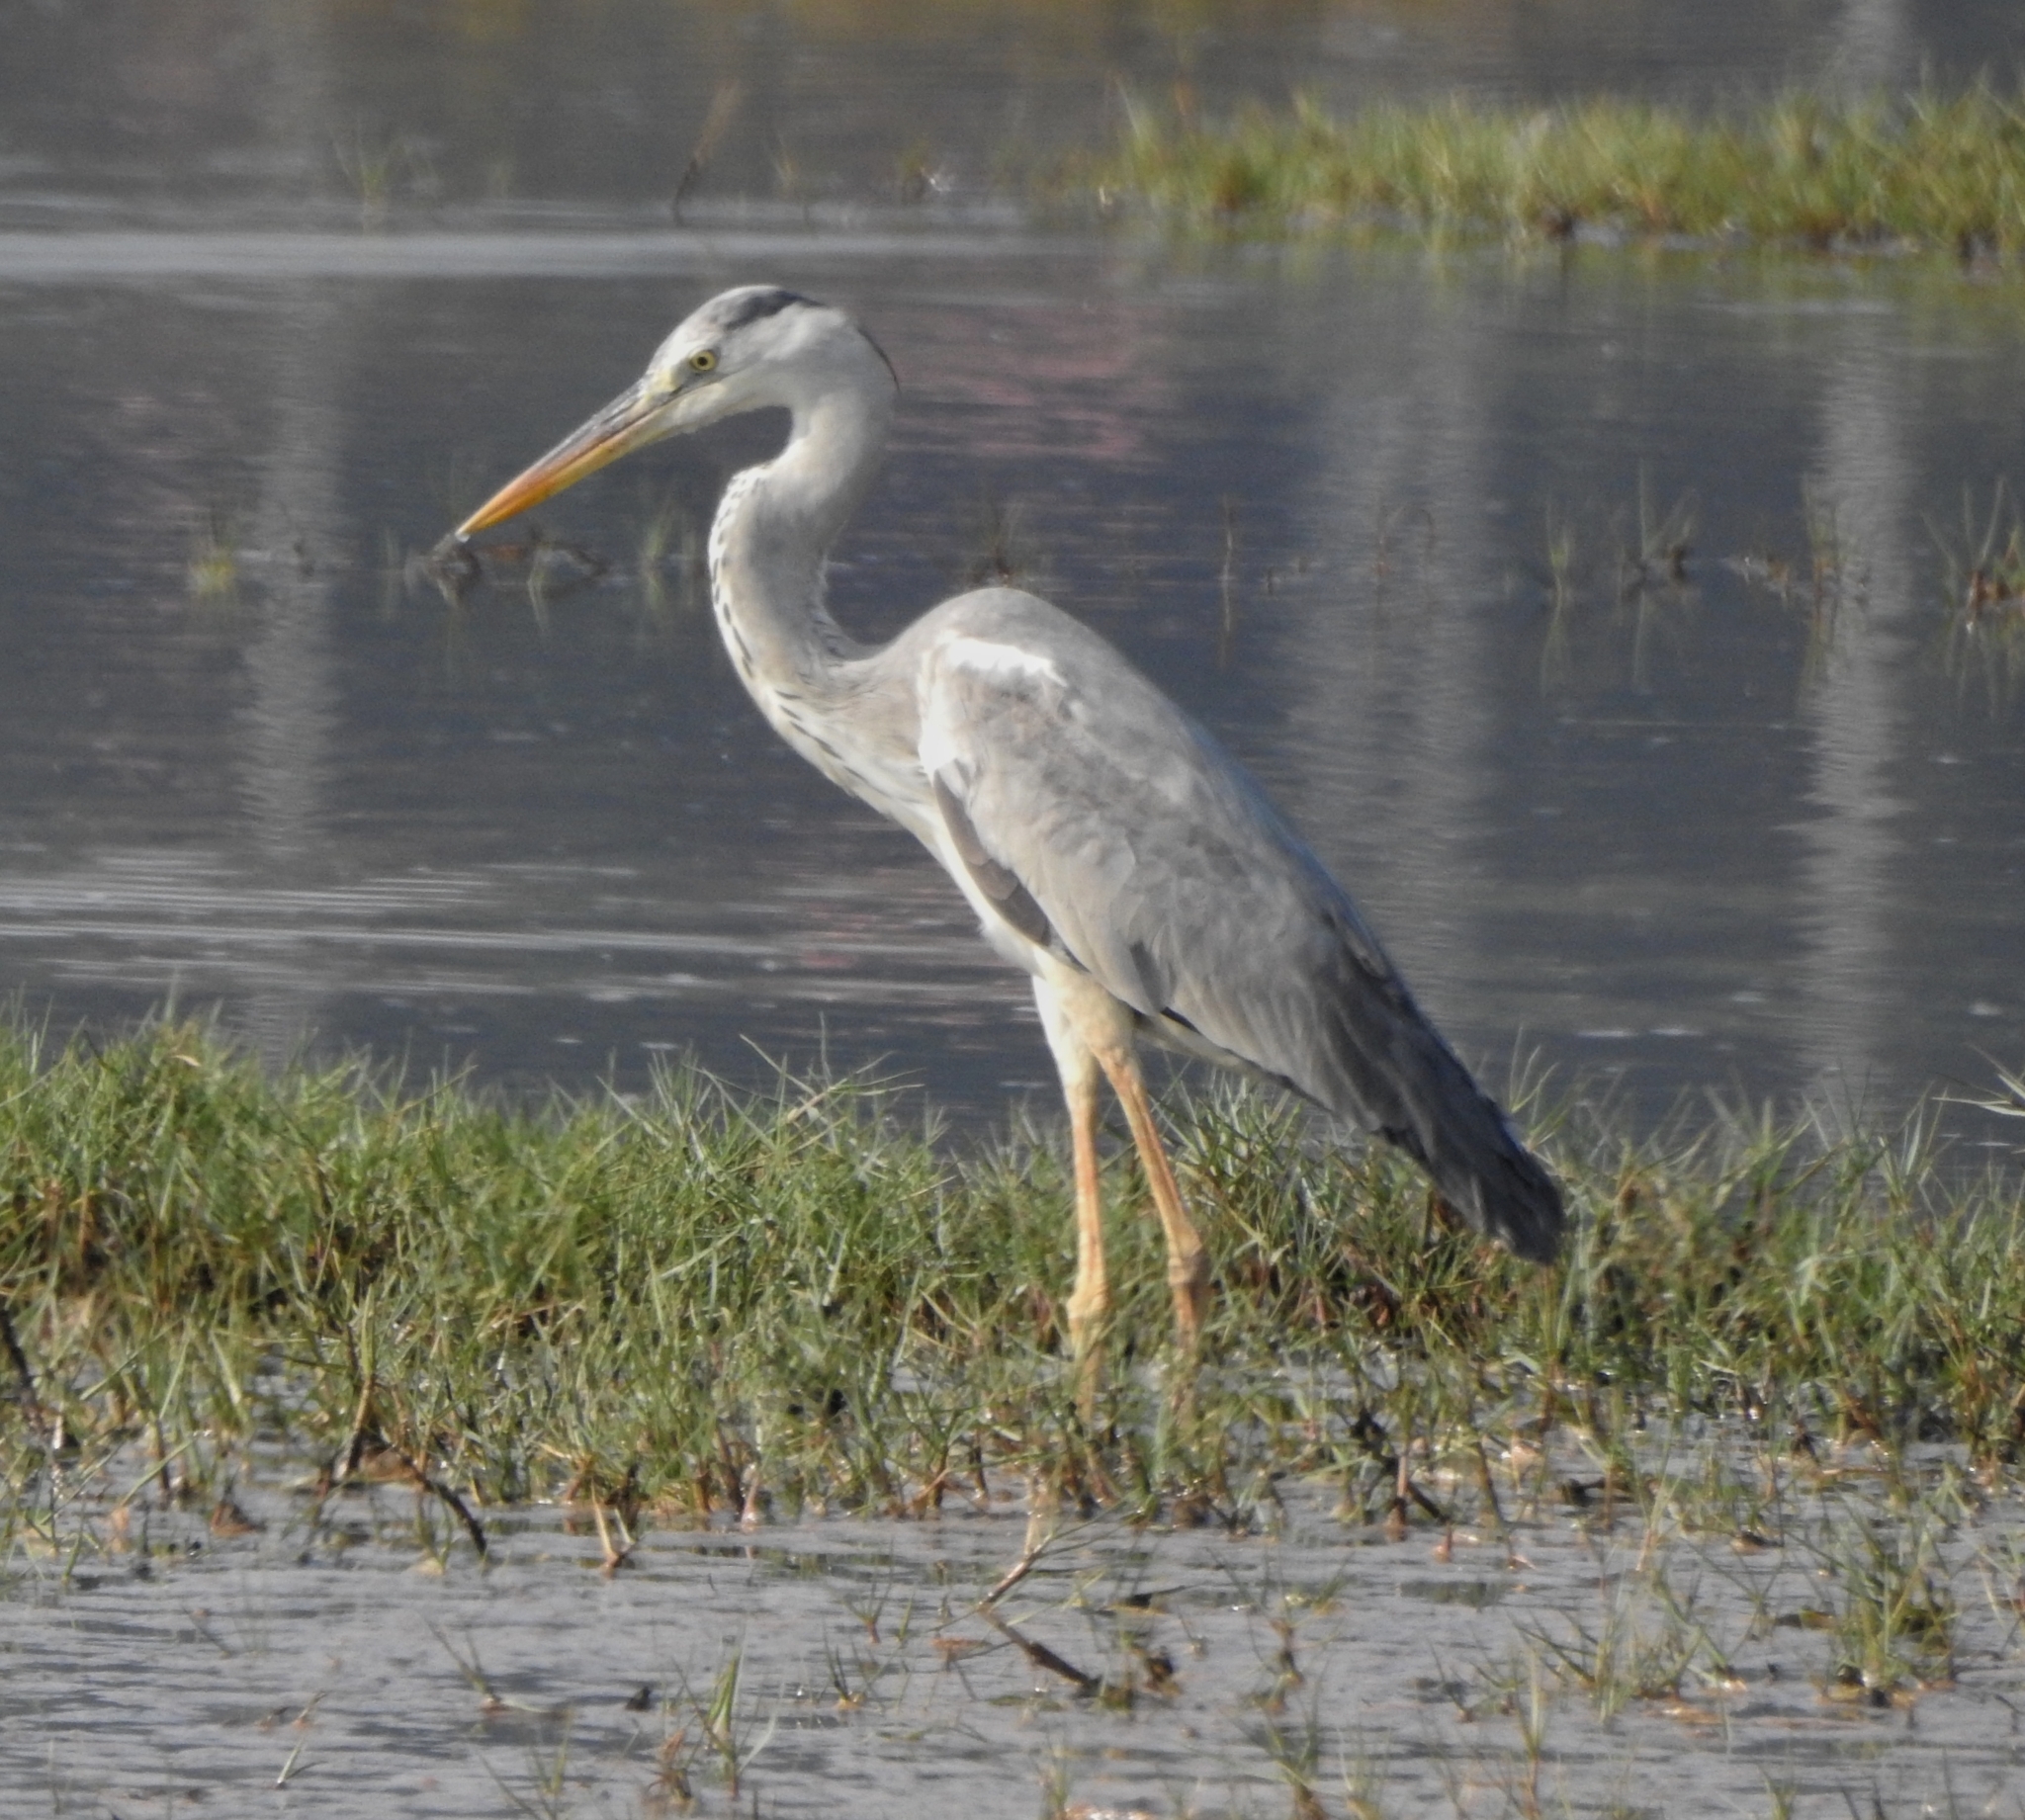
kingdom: Animalia
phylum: Chordata
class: Aves
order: Pelecaniformes
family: Ardeidae
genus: Ardea
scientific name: Ardea cinerea
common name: Grey heron
